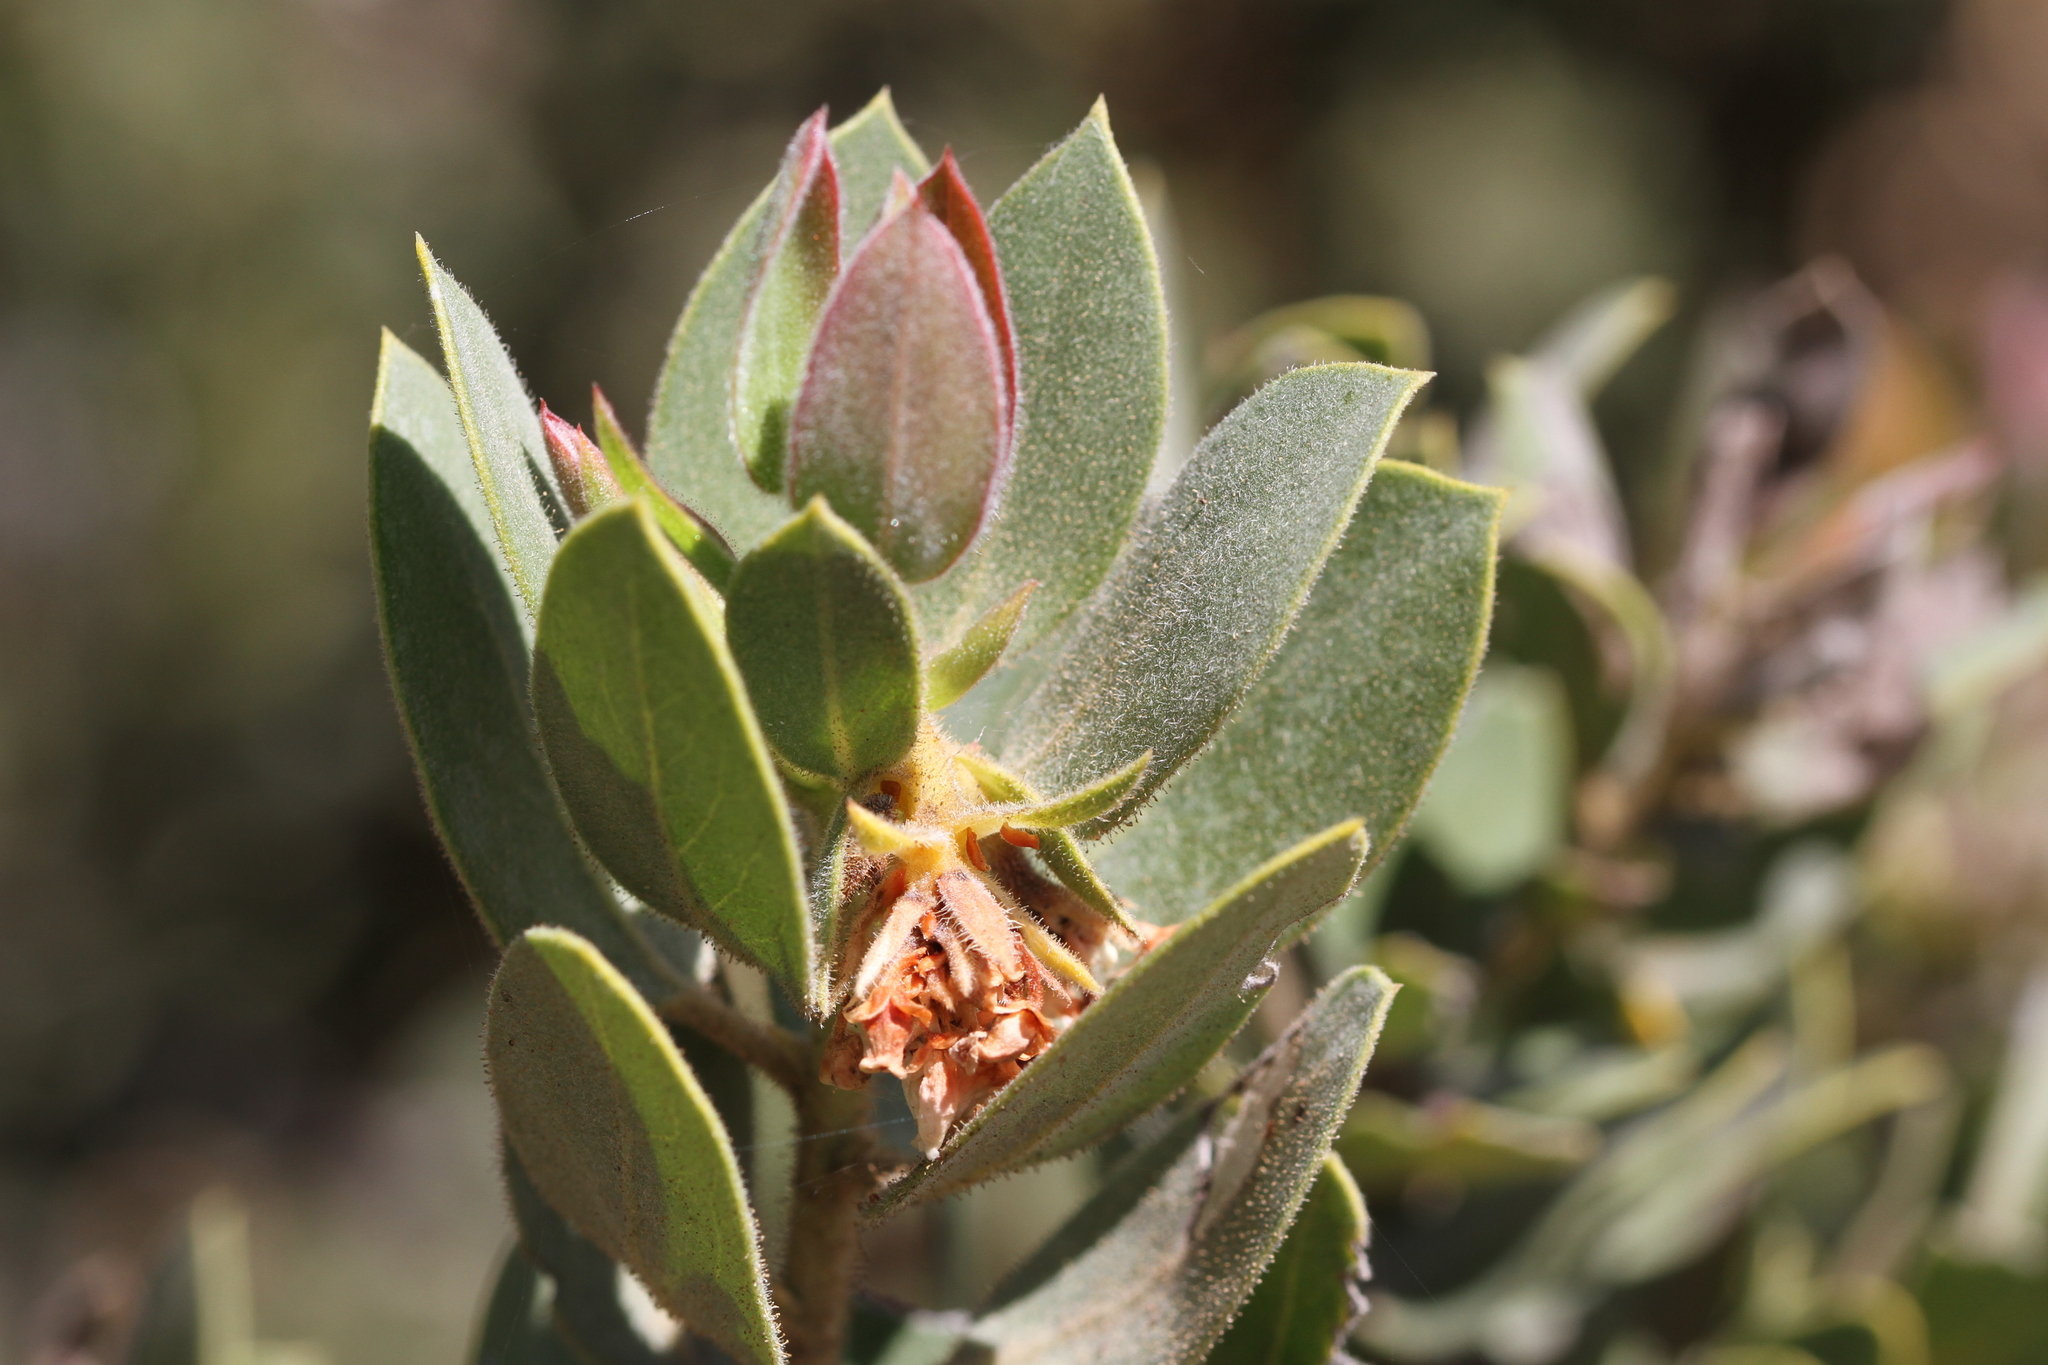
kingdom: Plantae
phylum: Tracheophyta
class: Magnoliopsida
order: Ericales
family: Ericaceae
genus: Arctostaphylos
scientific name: Arctostaphylos glandulosa
